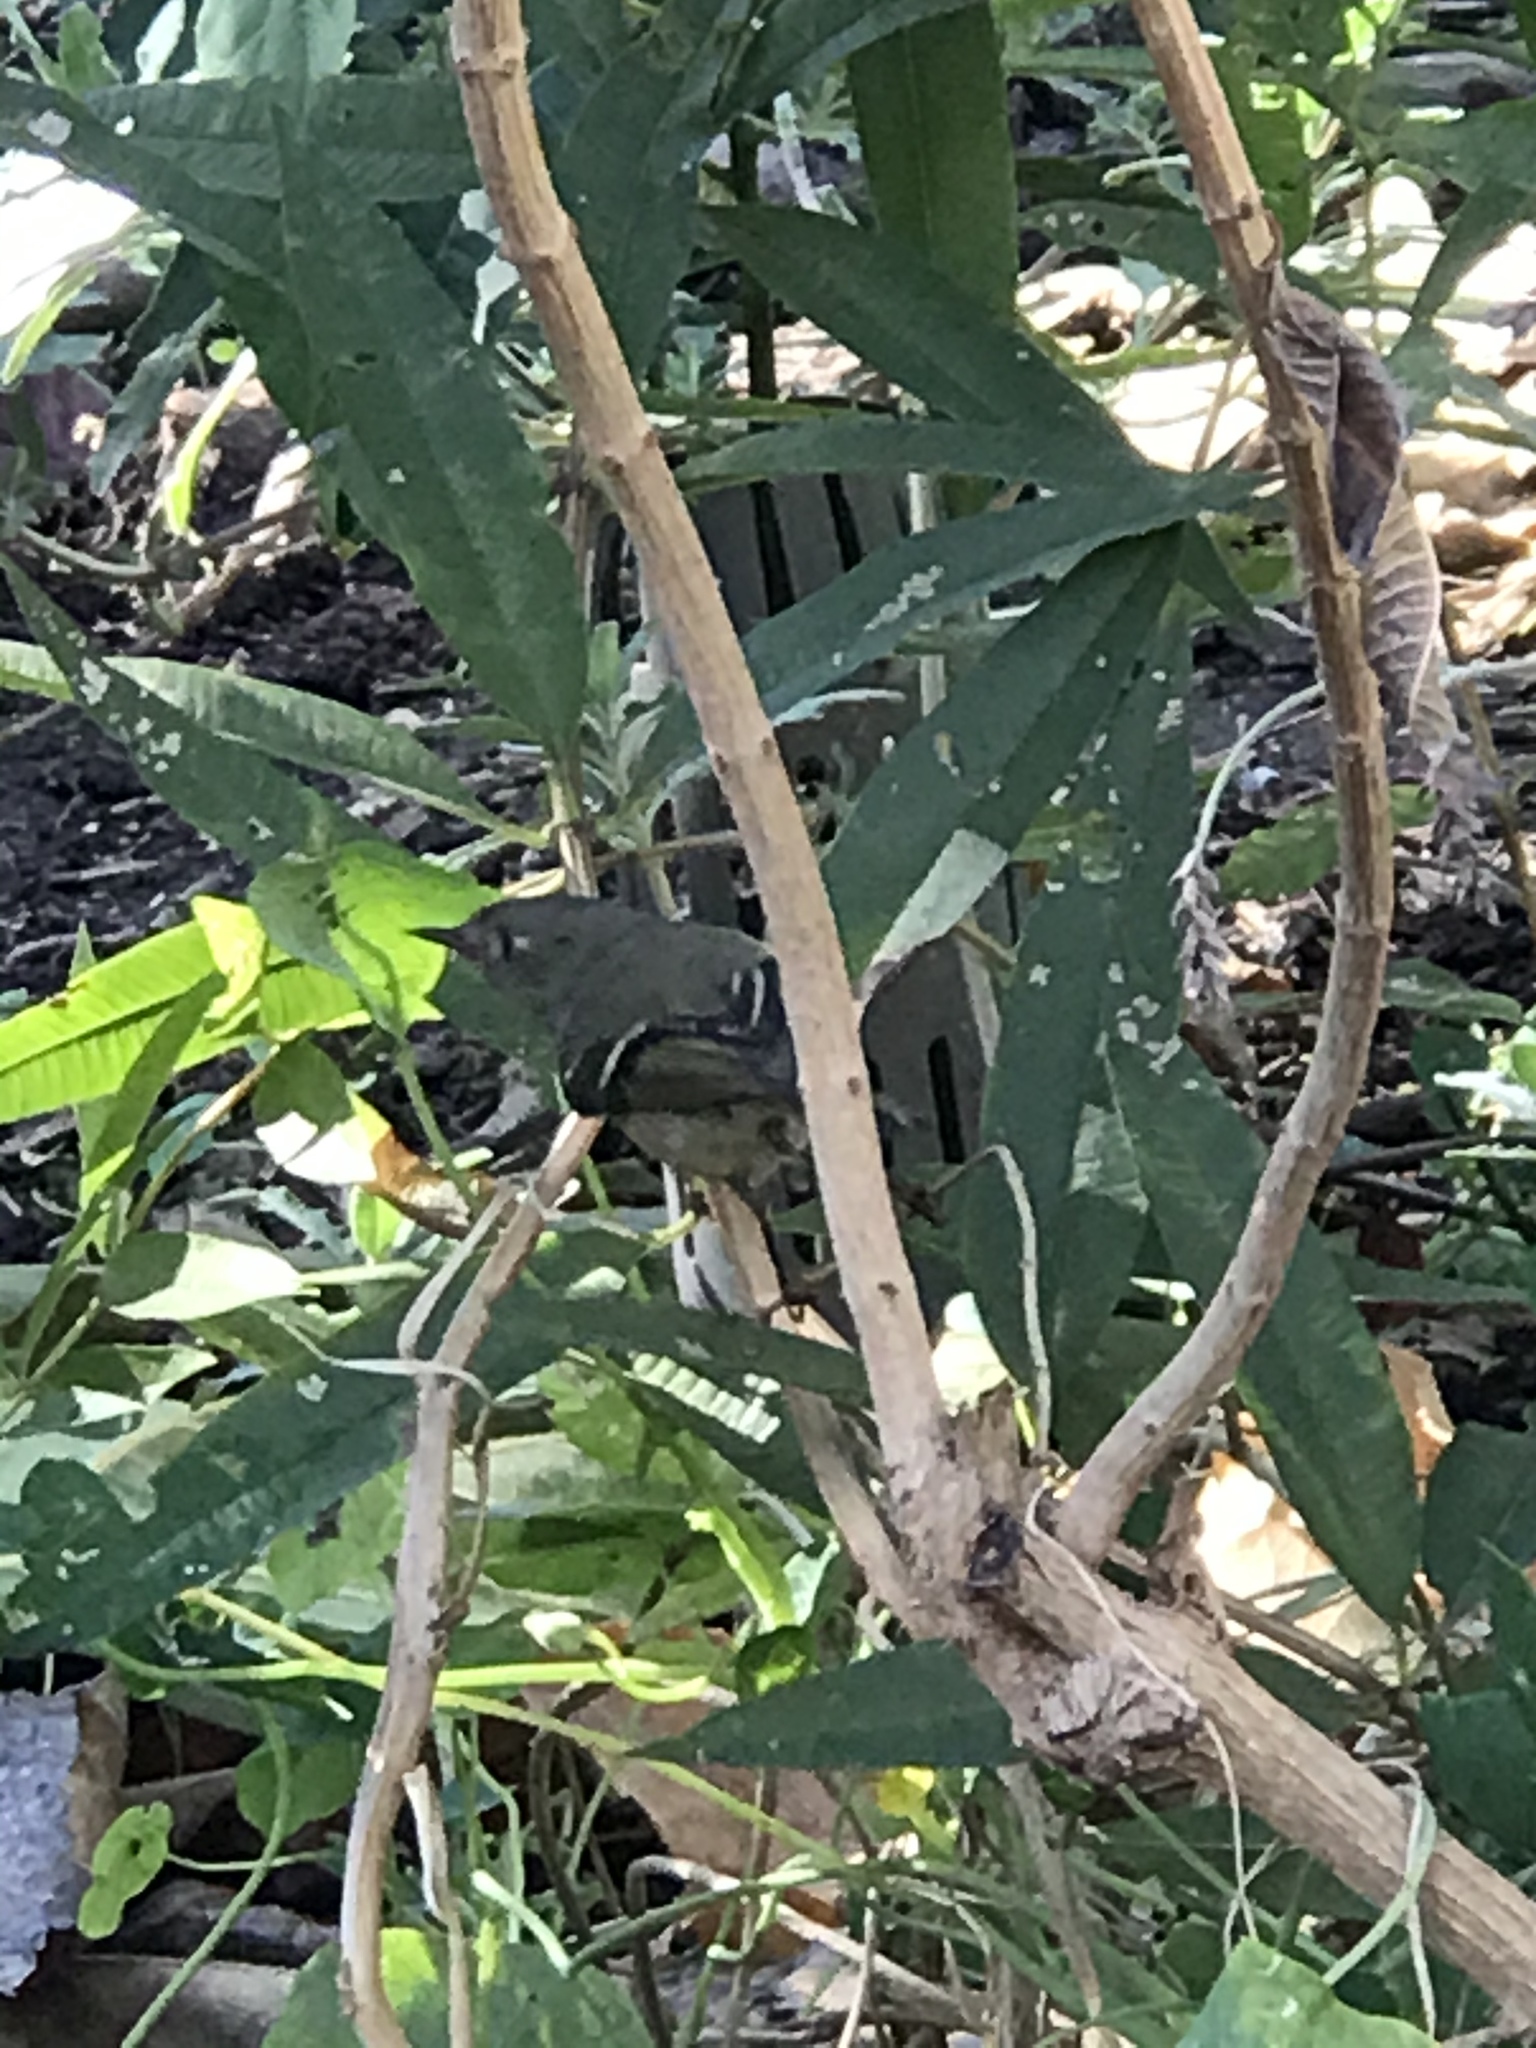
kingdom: Animalia
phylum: Chordata
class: Aves
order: Passeriformes
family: Regulidae
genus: Regulus
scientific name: Regulus calendula
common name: Ruby-crowned kinglet
